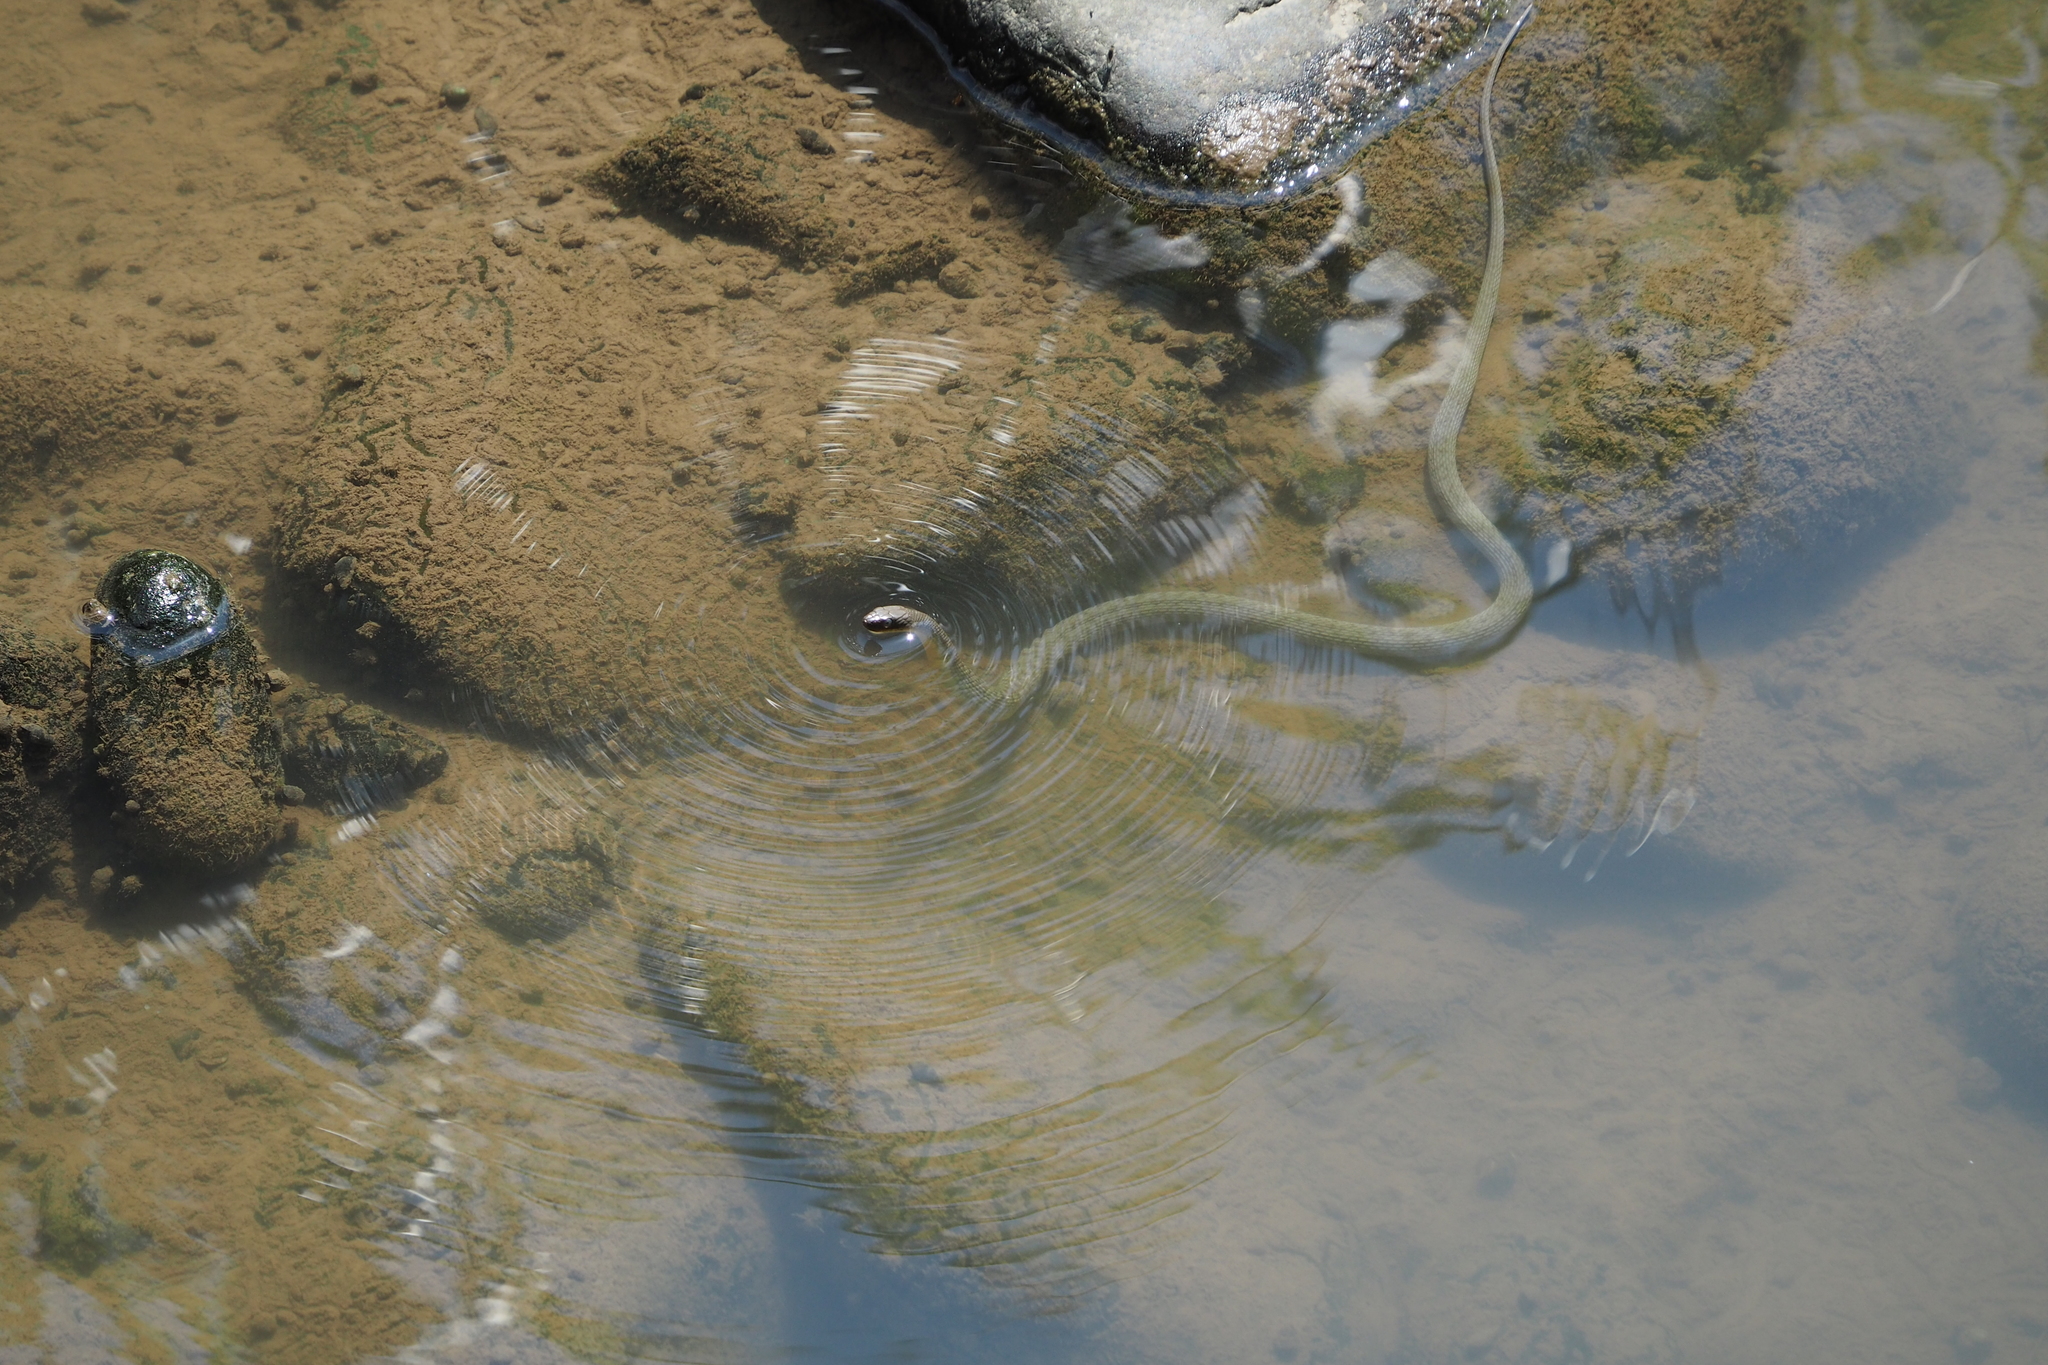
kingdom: Animalia
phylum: Chordata
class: Squamata
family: Colubridae
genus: Trimerodytes
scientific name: Trimerodytes percarinatus
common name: Eastern water snake
